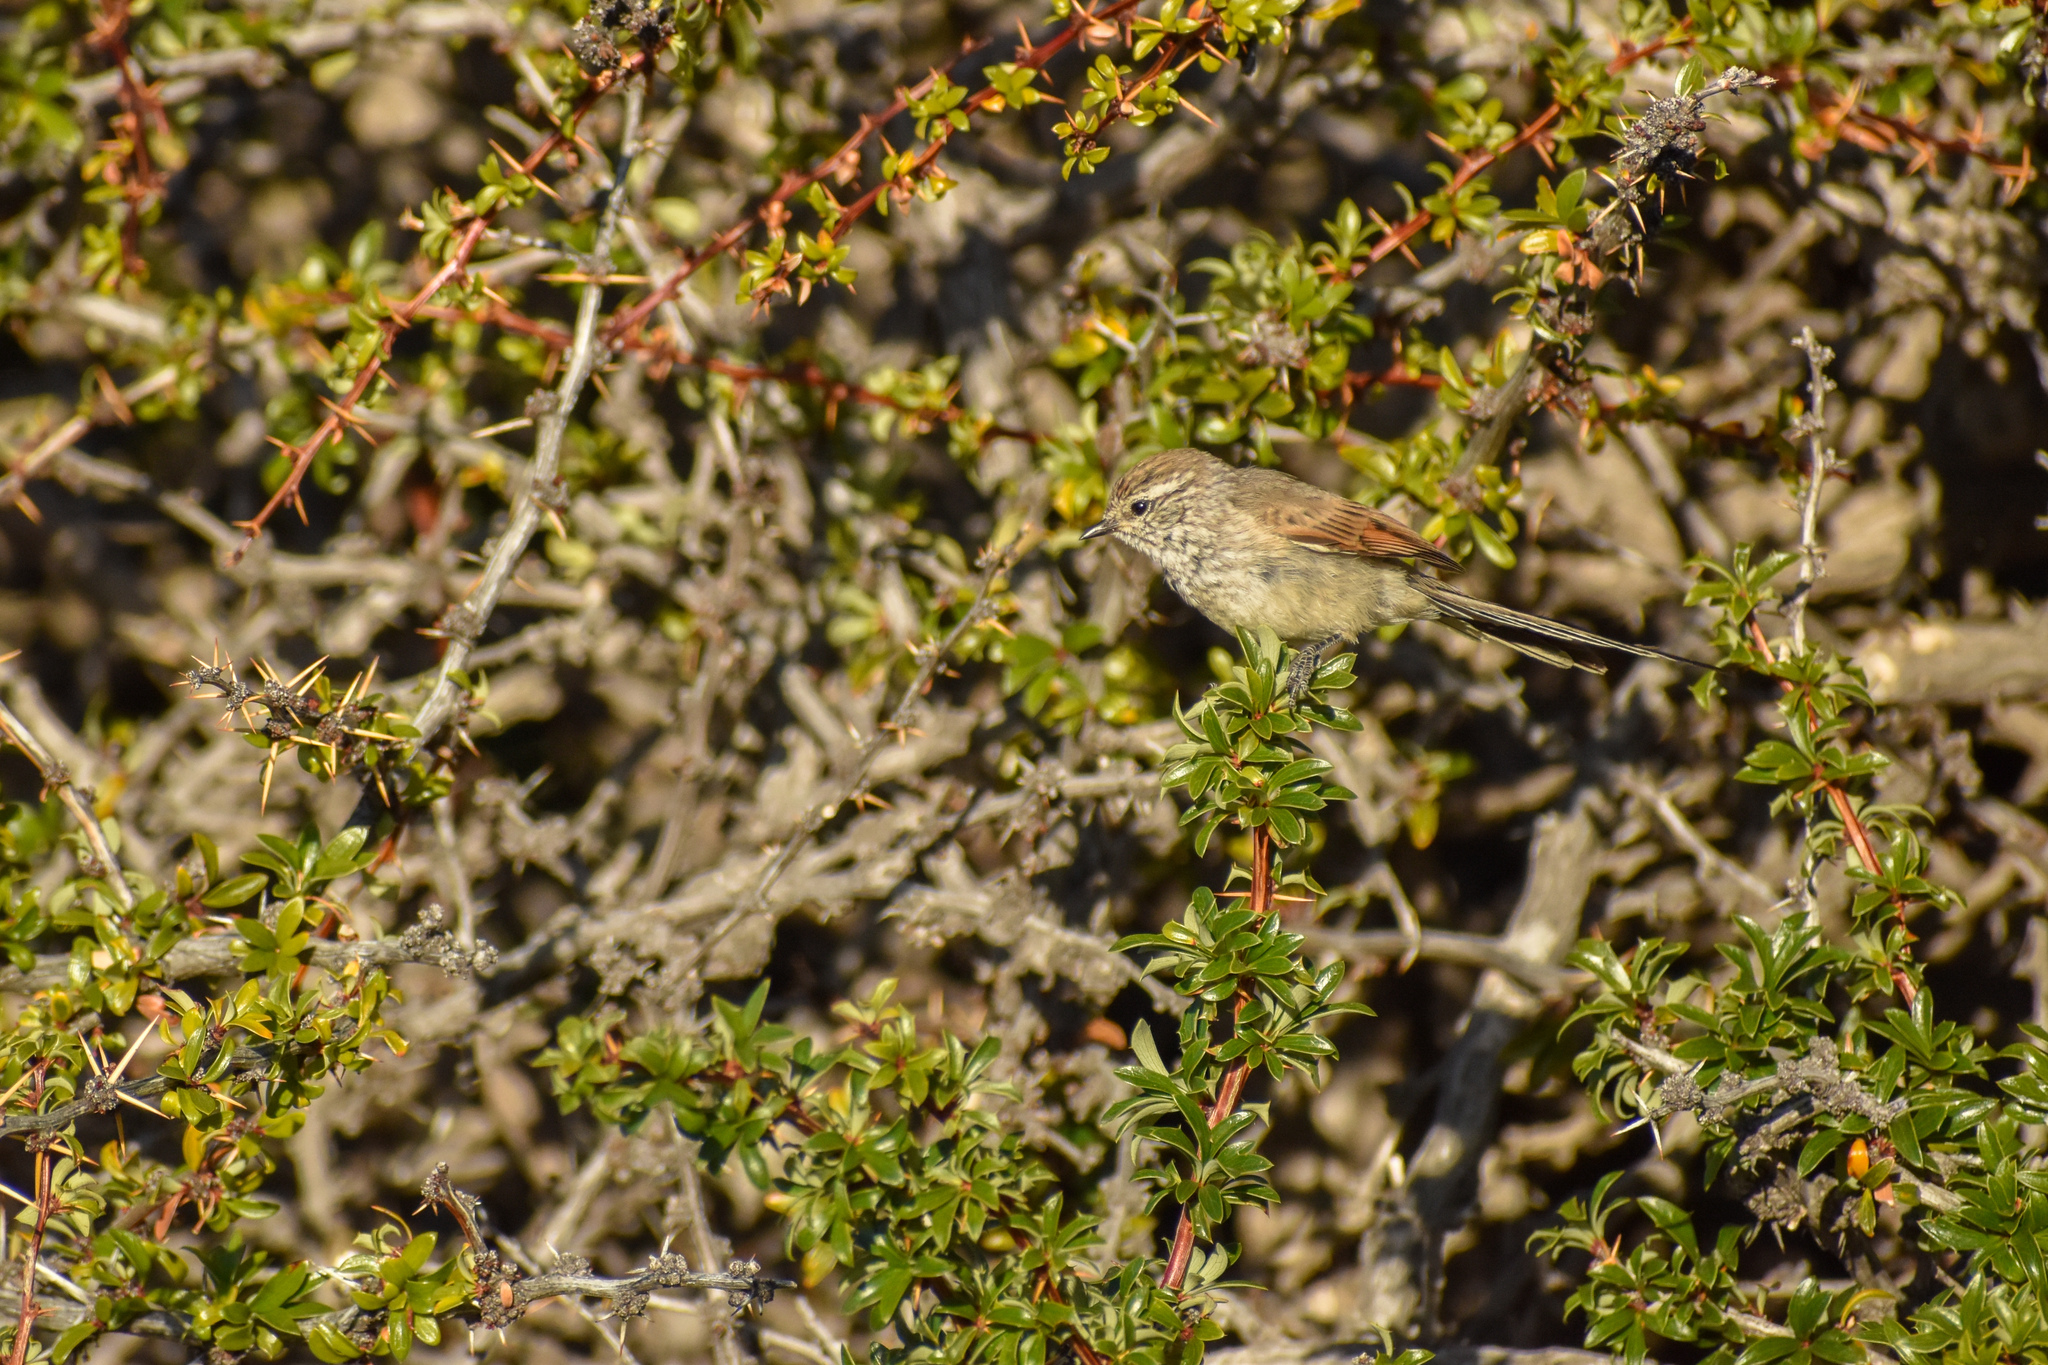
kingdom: Animalia
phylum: Chordata
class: Aves
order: Passeriformes
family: Furnariidae
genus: Leptasthenura
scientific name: Leptasthenura aegithaloides
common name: Plain-mantled tit-spinetail
